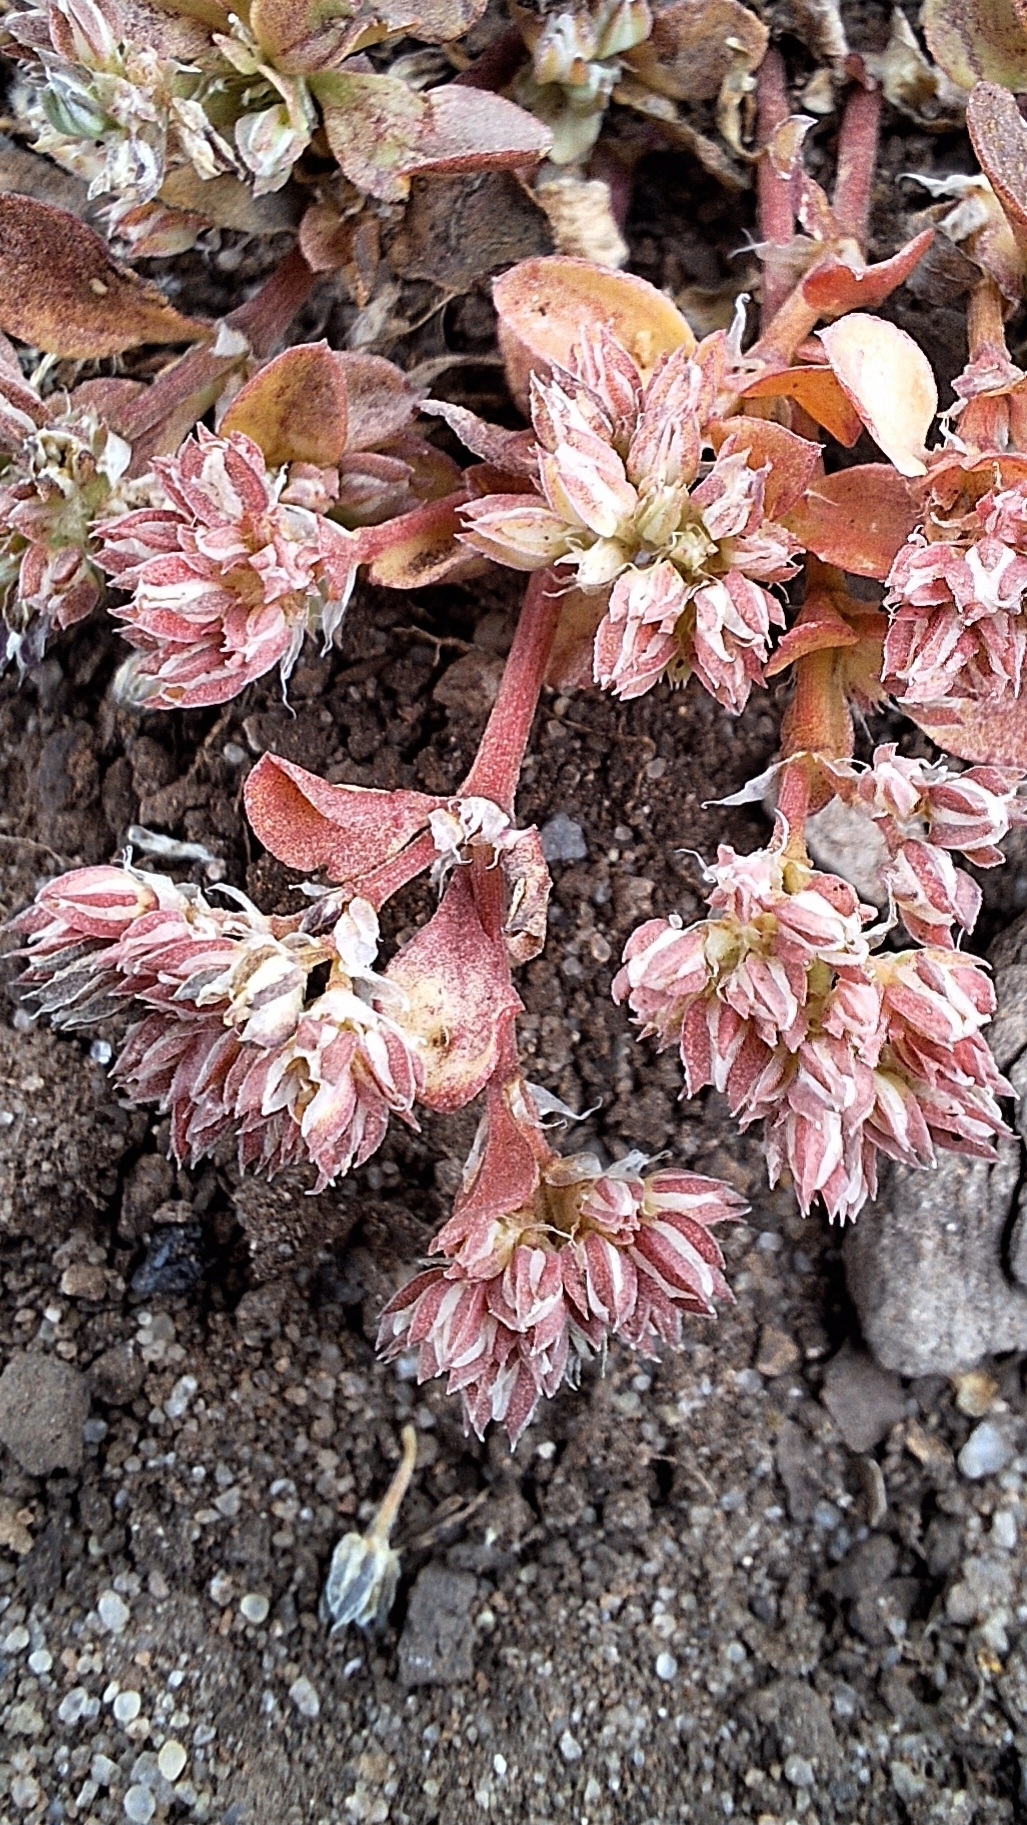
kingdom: Plantae
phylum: Tracheophyta
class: Magnoliopsida
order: Caryophyllales
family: Caryophyllaceae
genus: Polycarpon
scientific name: Polycarpon tetraphyllum
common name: Four-leaved all-seed
